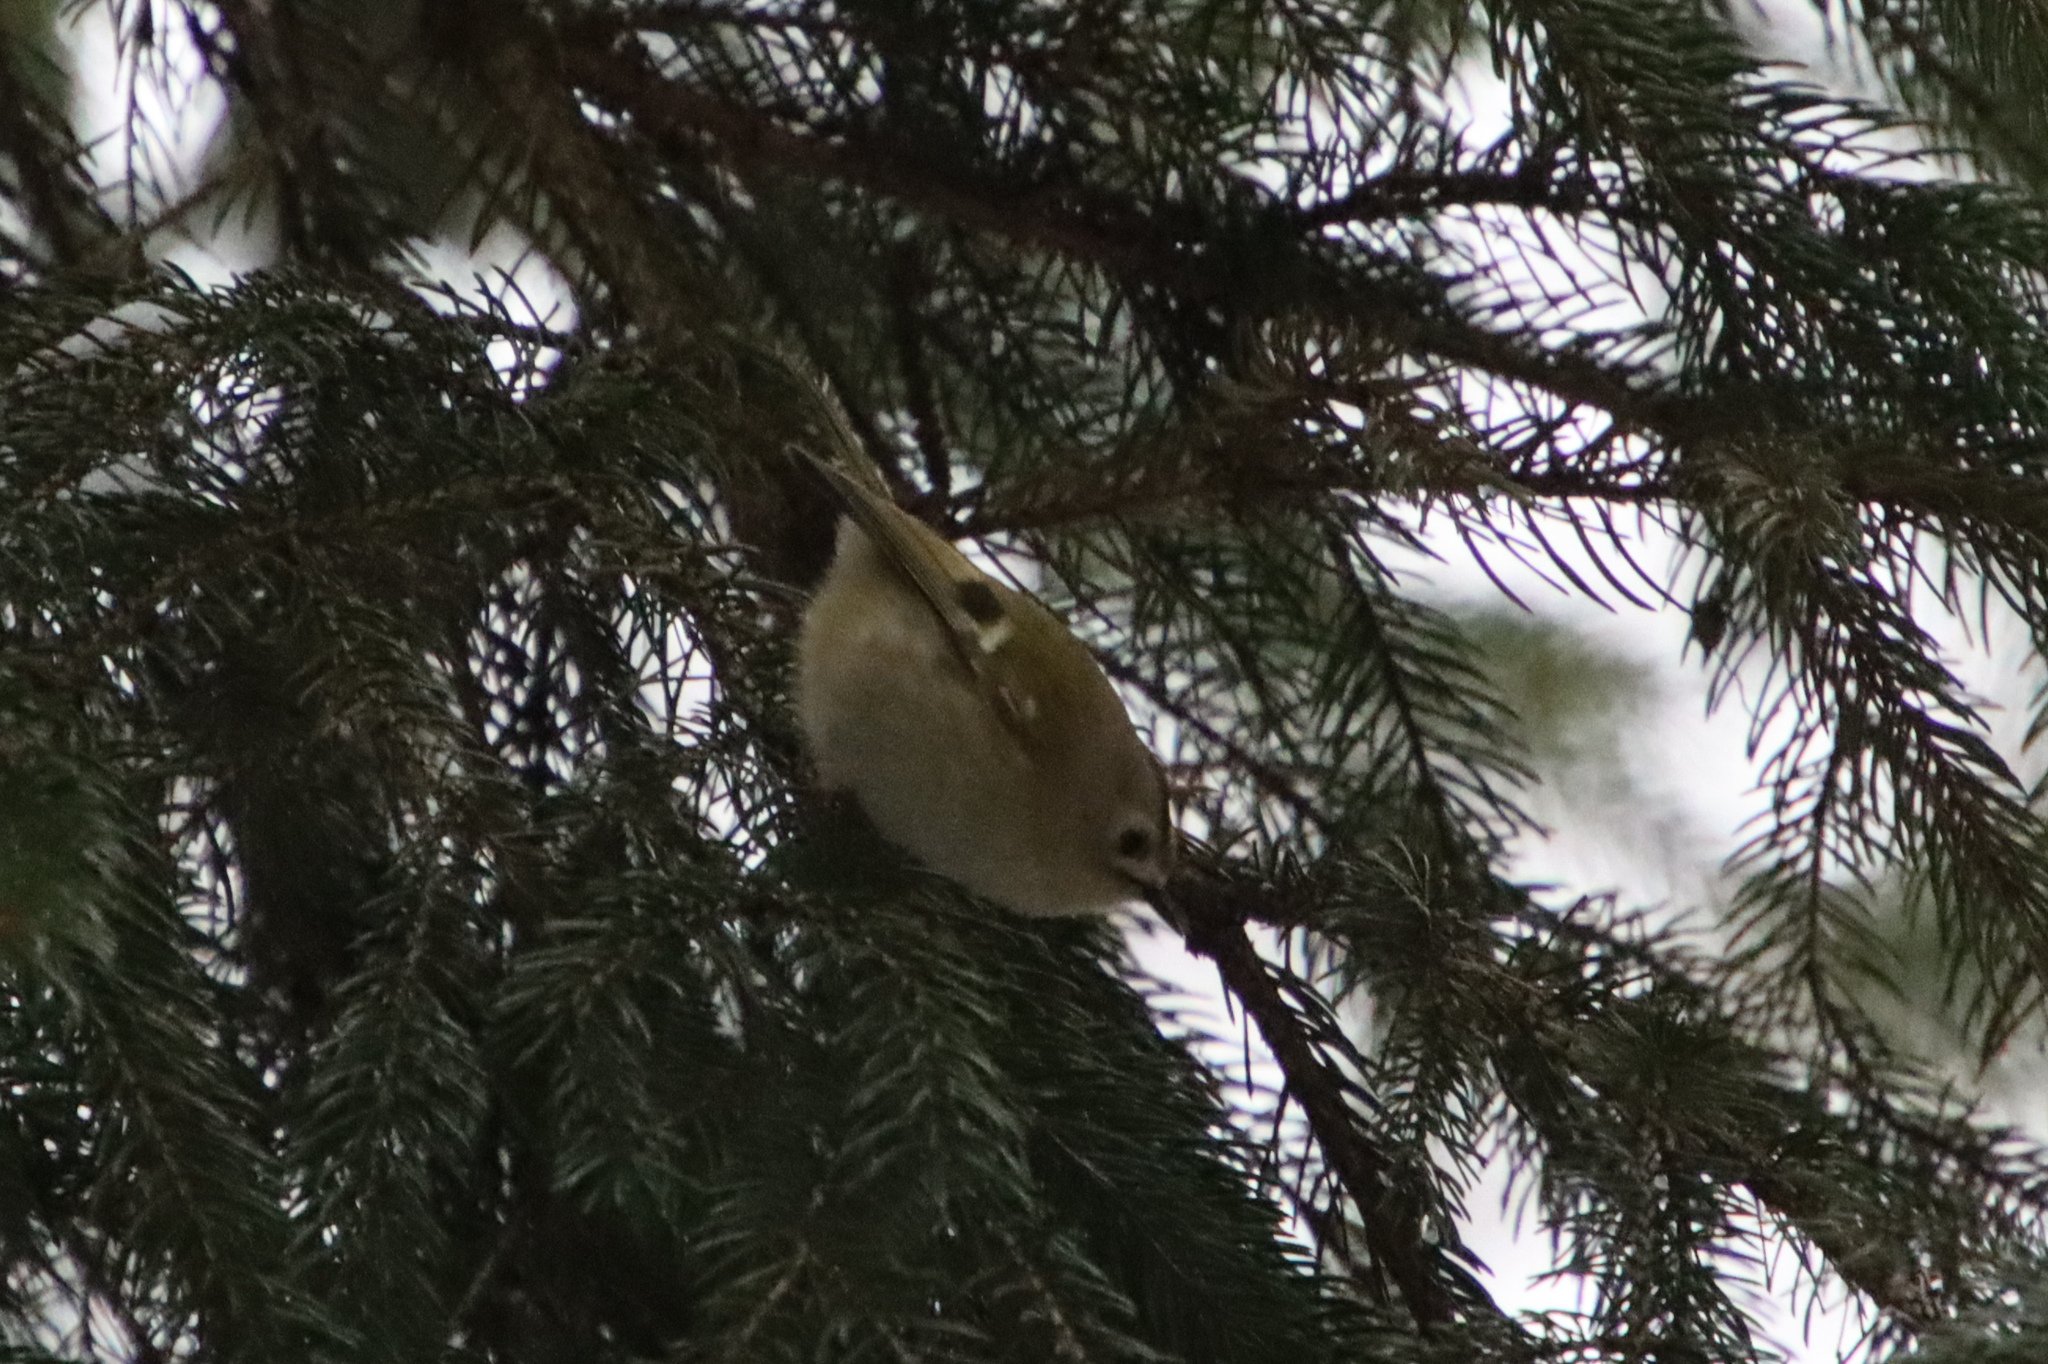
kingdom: Animalia
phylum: Chordata
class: Aves
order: Passeriformes
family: Regulidae
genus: Regulus
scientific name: Regulus regulus
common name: Goldcrest
